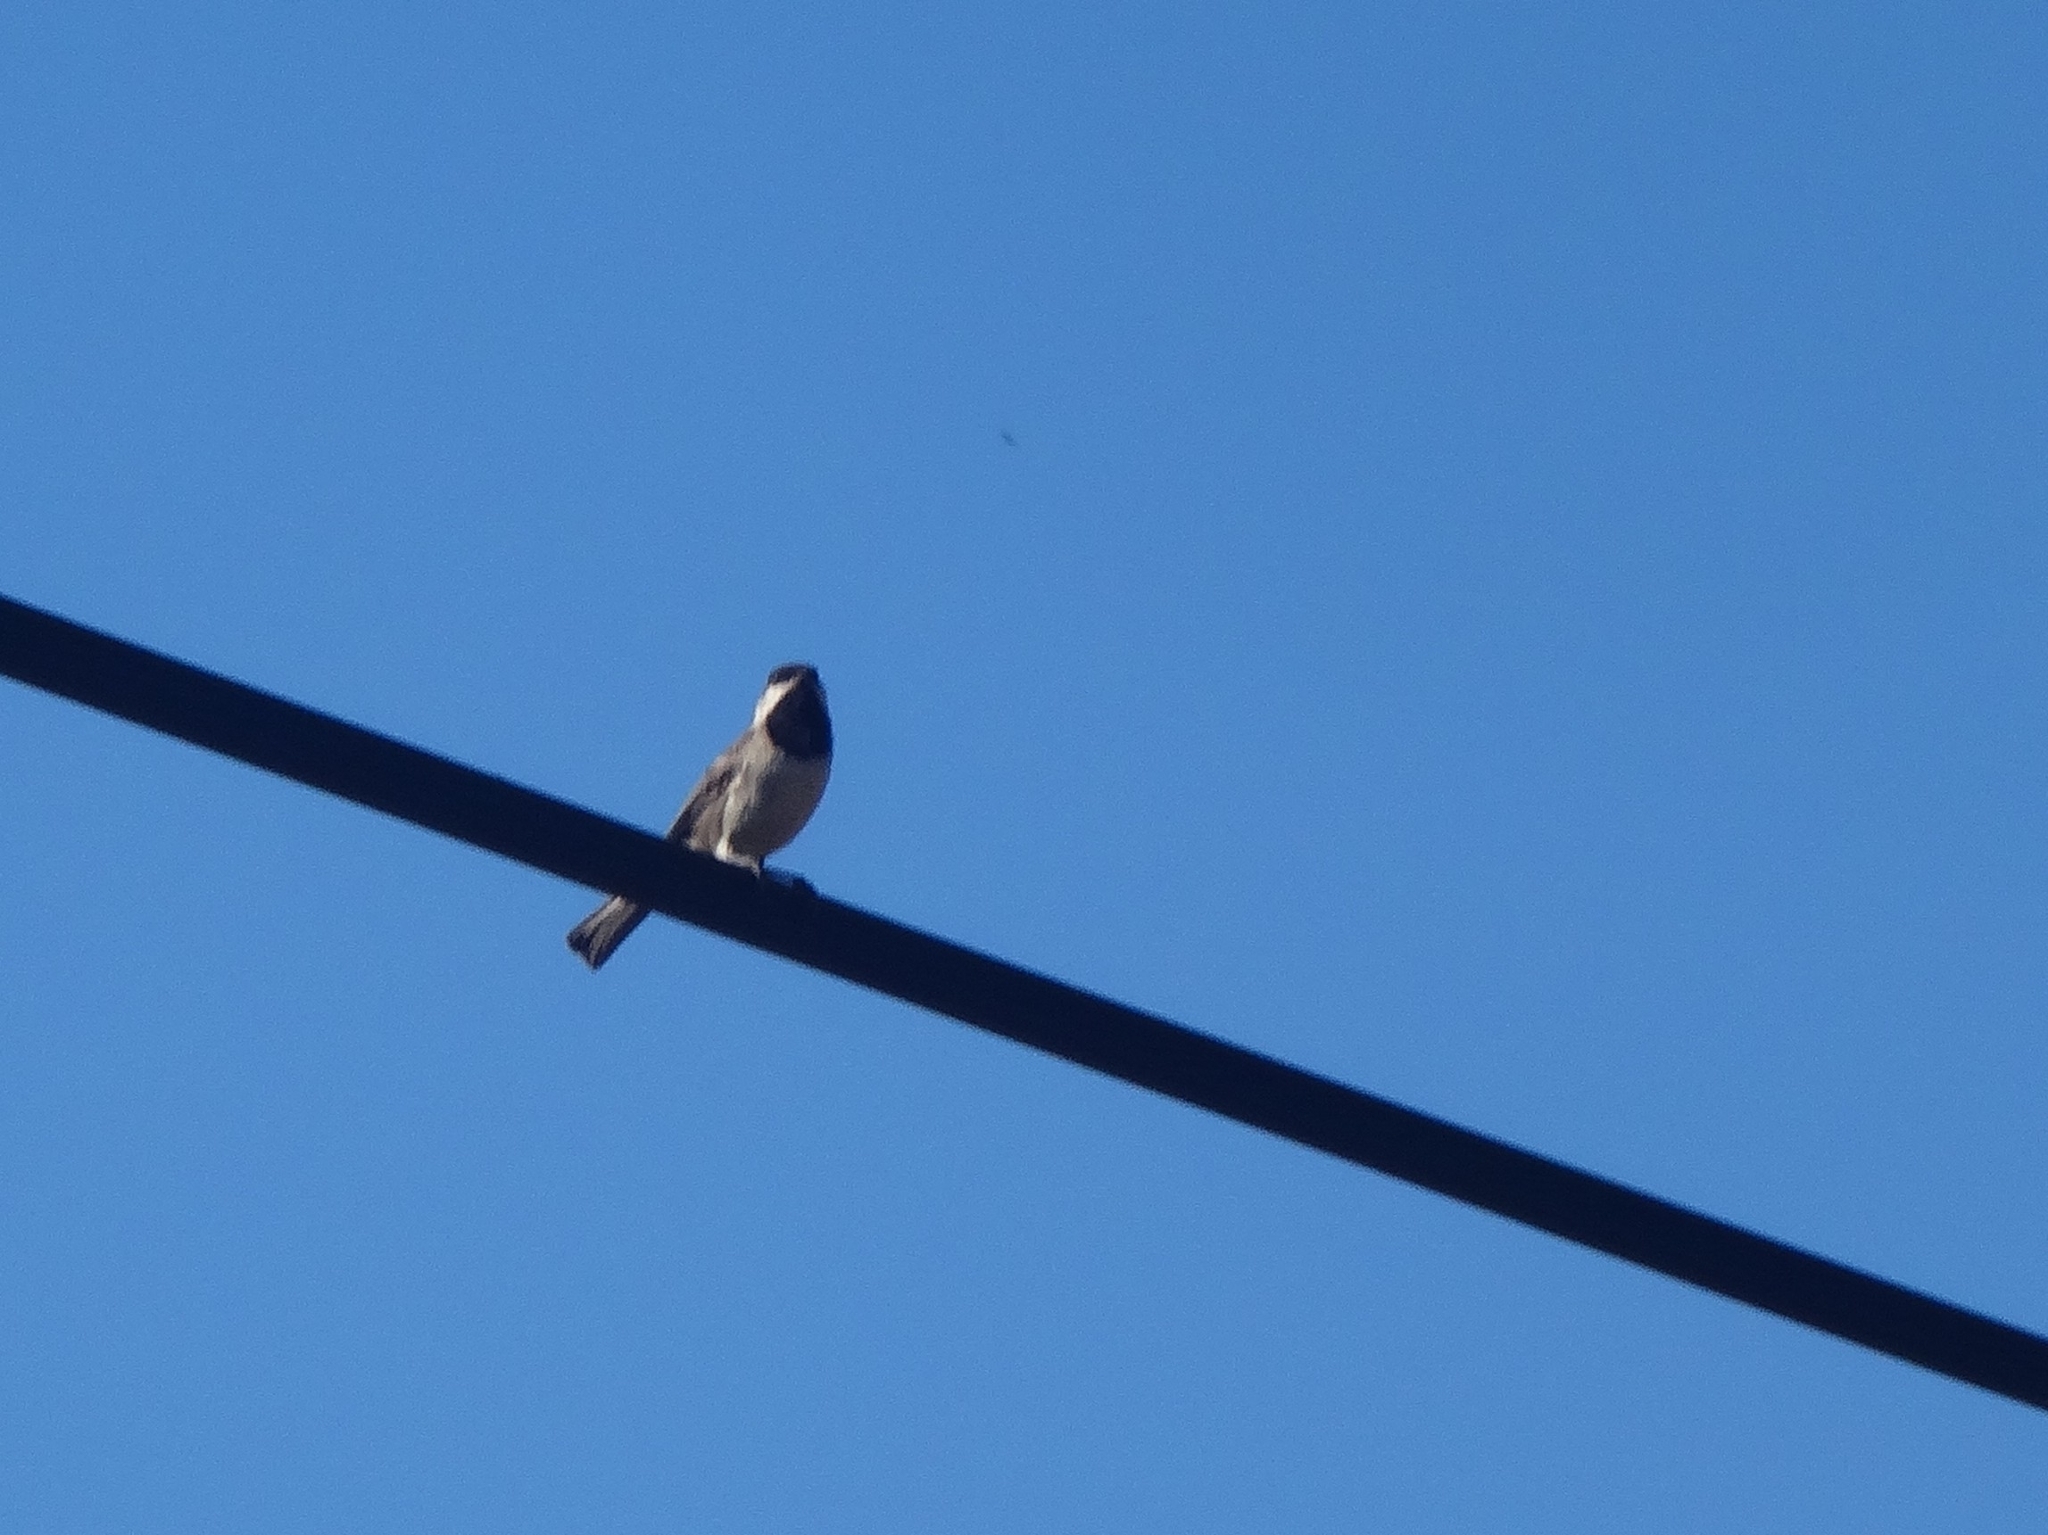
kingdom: Animalia
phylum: Chordata
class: Aves
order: Passeriformes
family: Paridae
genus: Poecile
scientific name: Poecile lugubris
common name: Sombre tit
